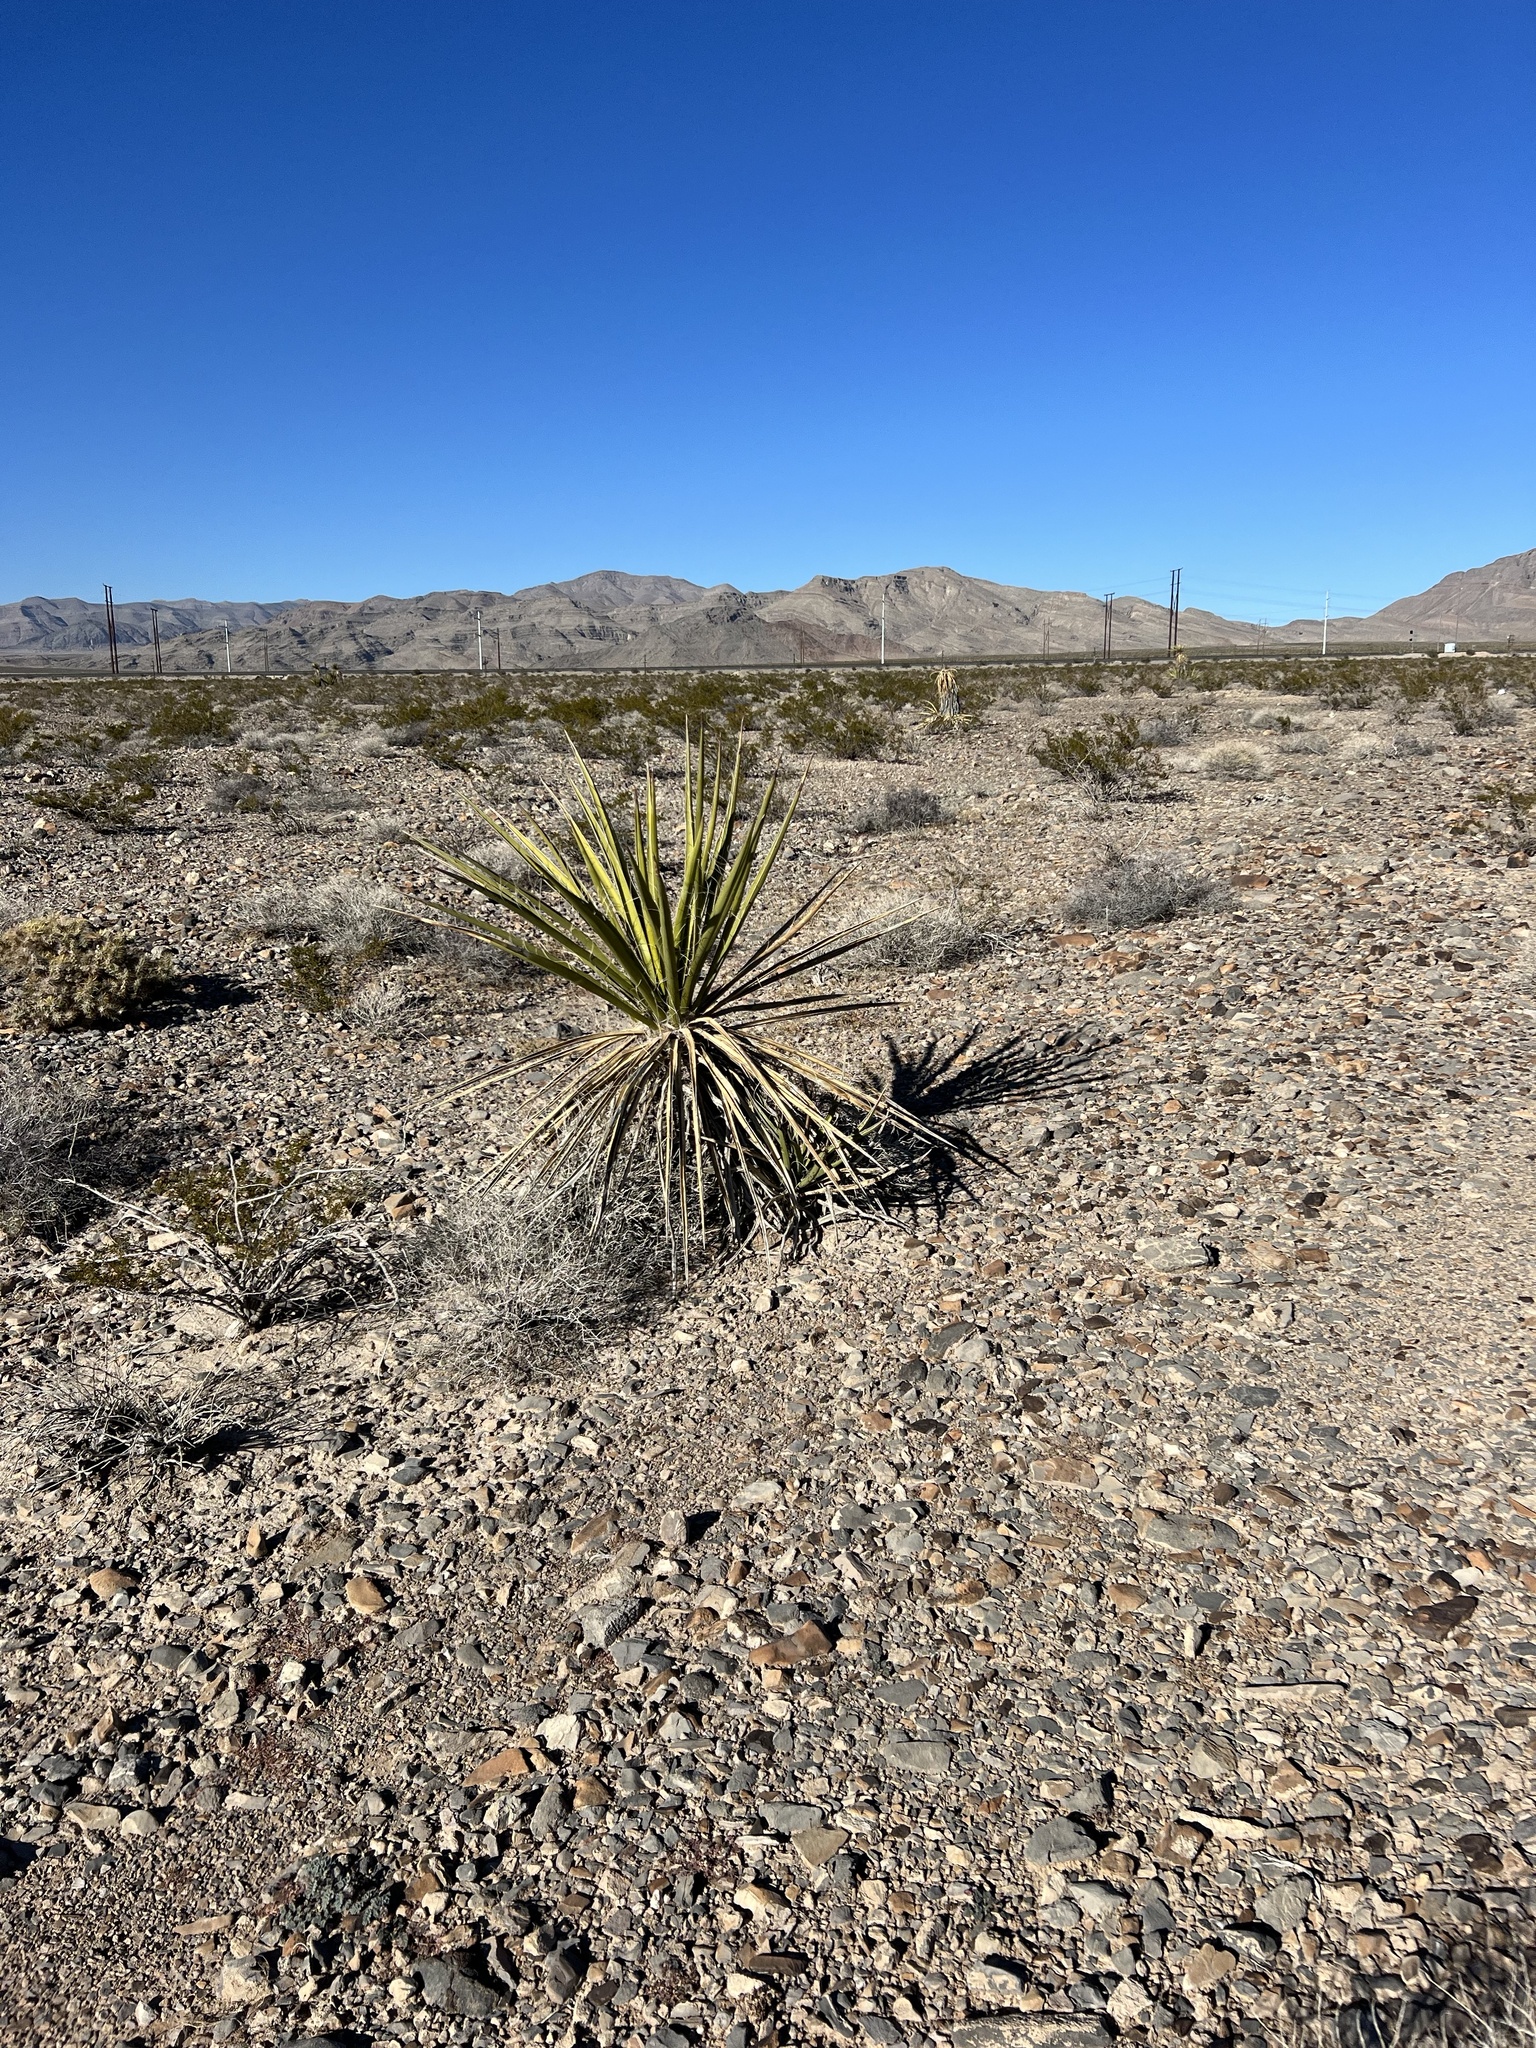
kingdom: Plantae
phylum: Tracheophyta
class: Liliopsida
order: Asparagales
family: Asparagaceae
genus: Yucca
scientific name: Yucca schidigera
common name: Mojave yucca
